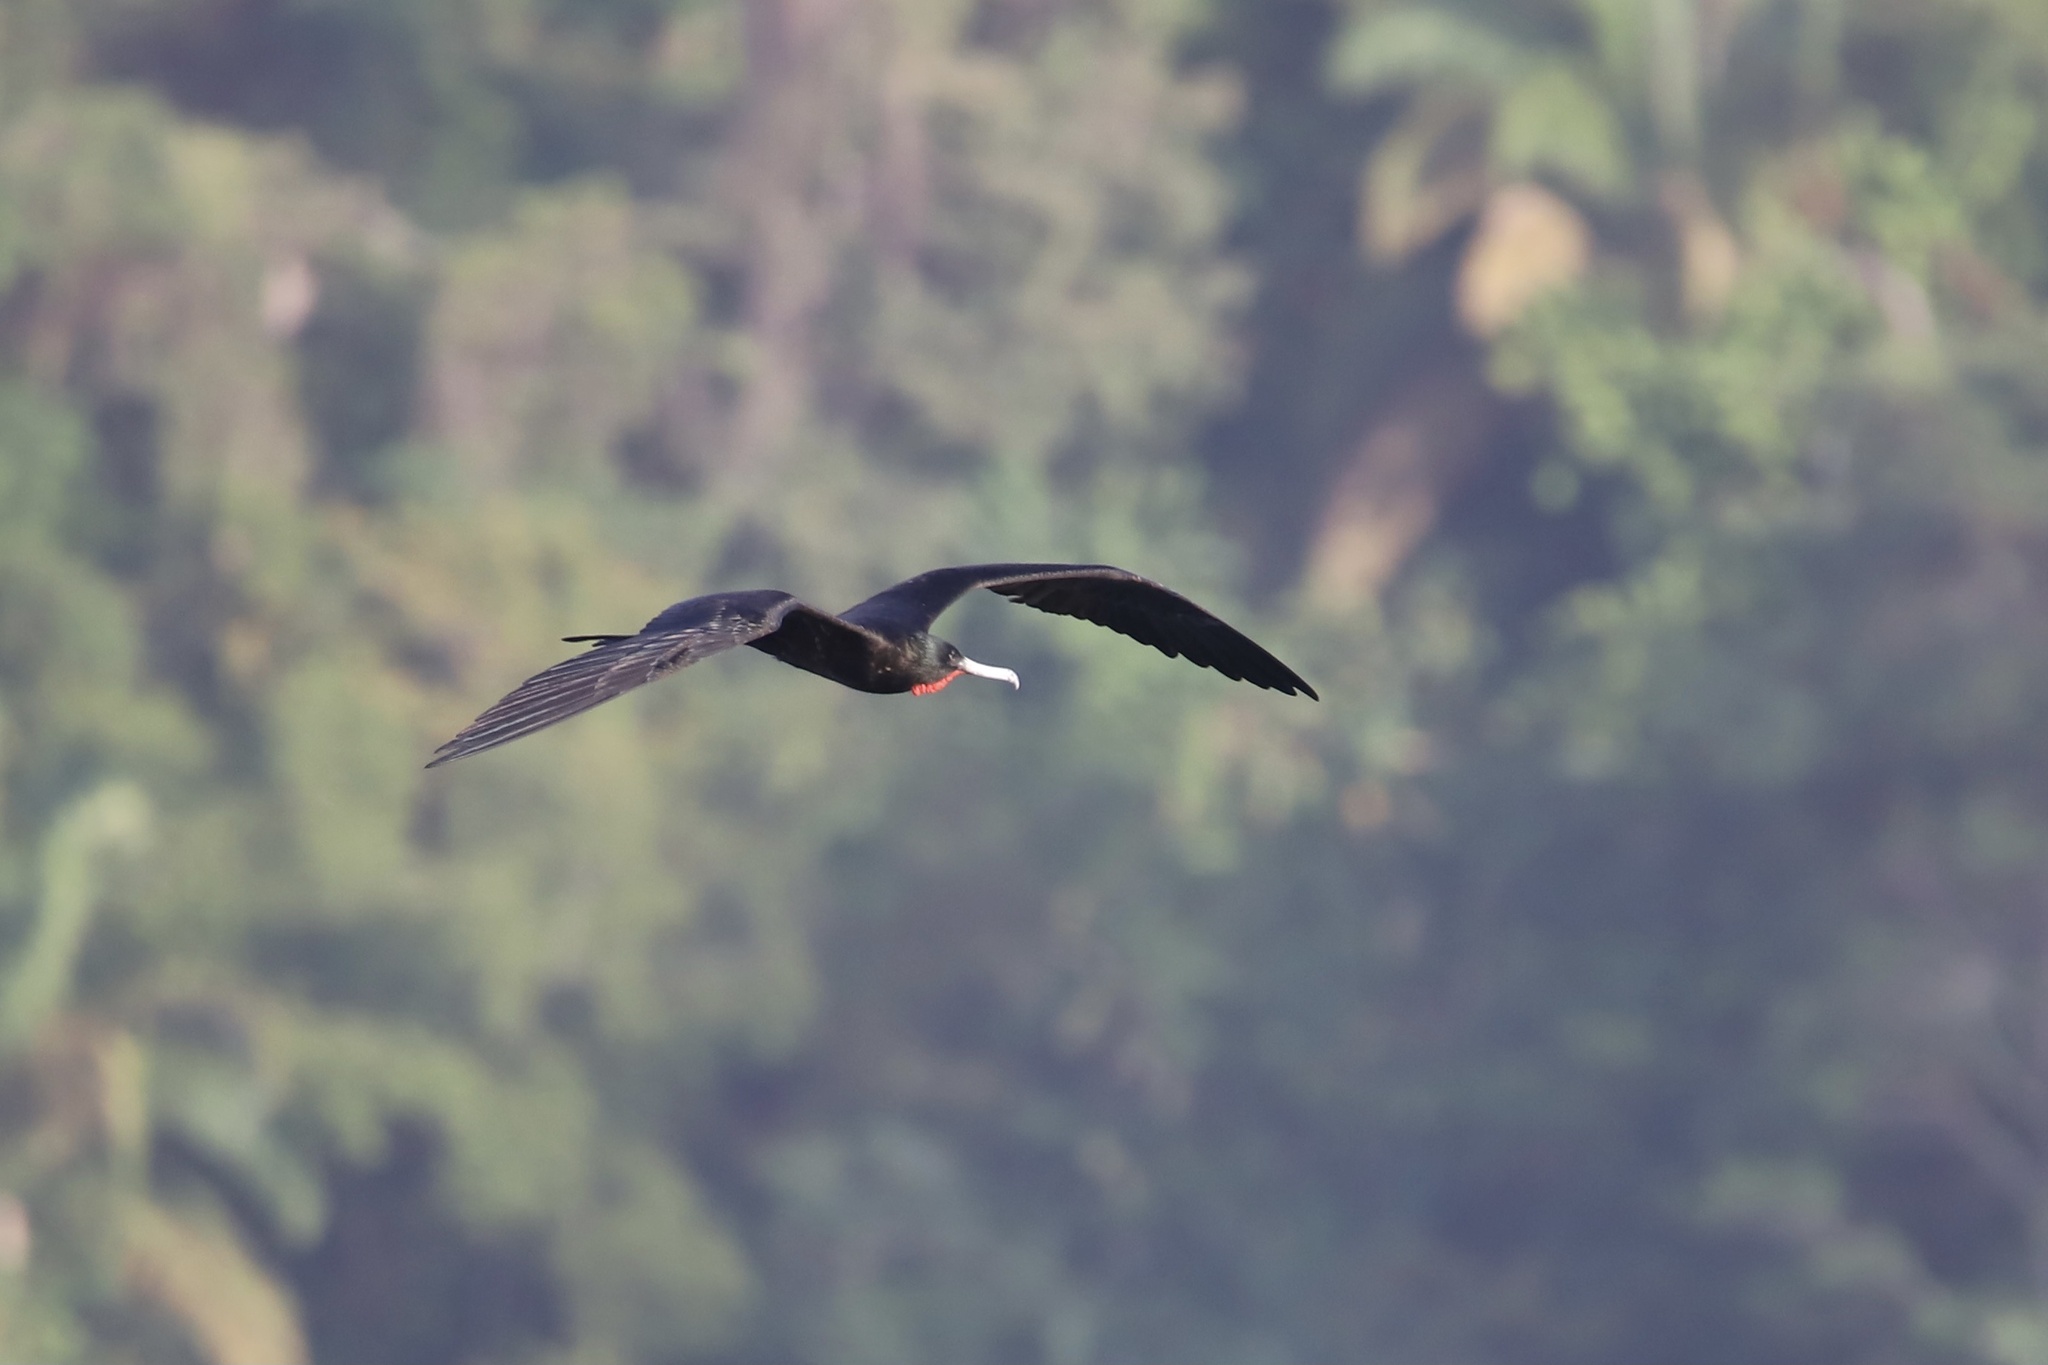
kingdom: Animalia
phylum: Chordata
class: Aves
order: Suliformes
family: Fregatidae
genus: Fregata
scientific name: Fregata magnificens
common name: Magnificent frigatebird
